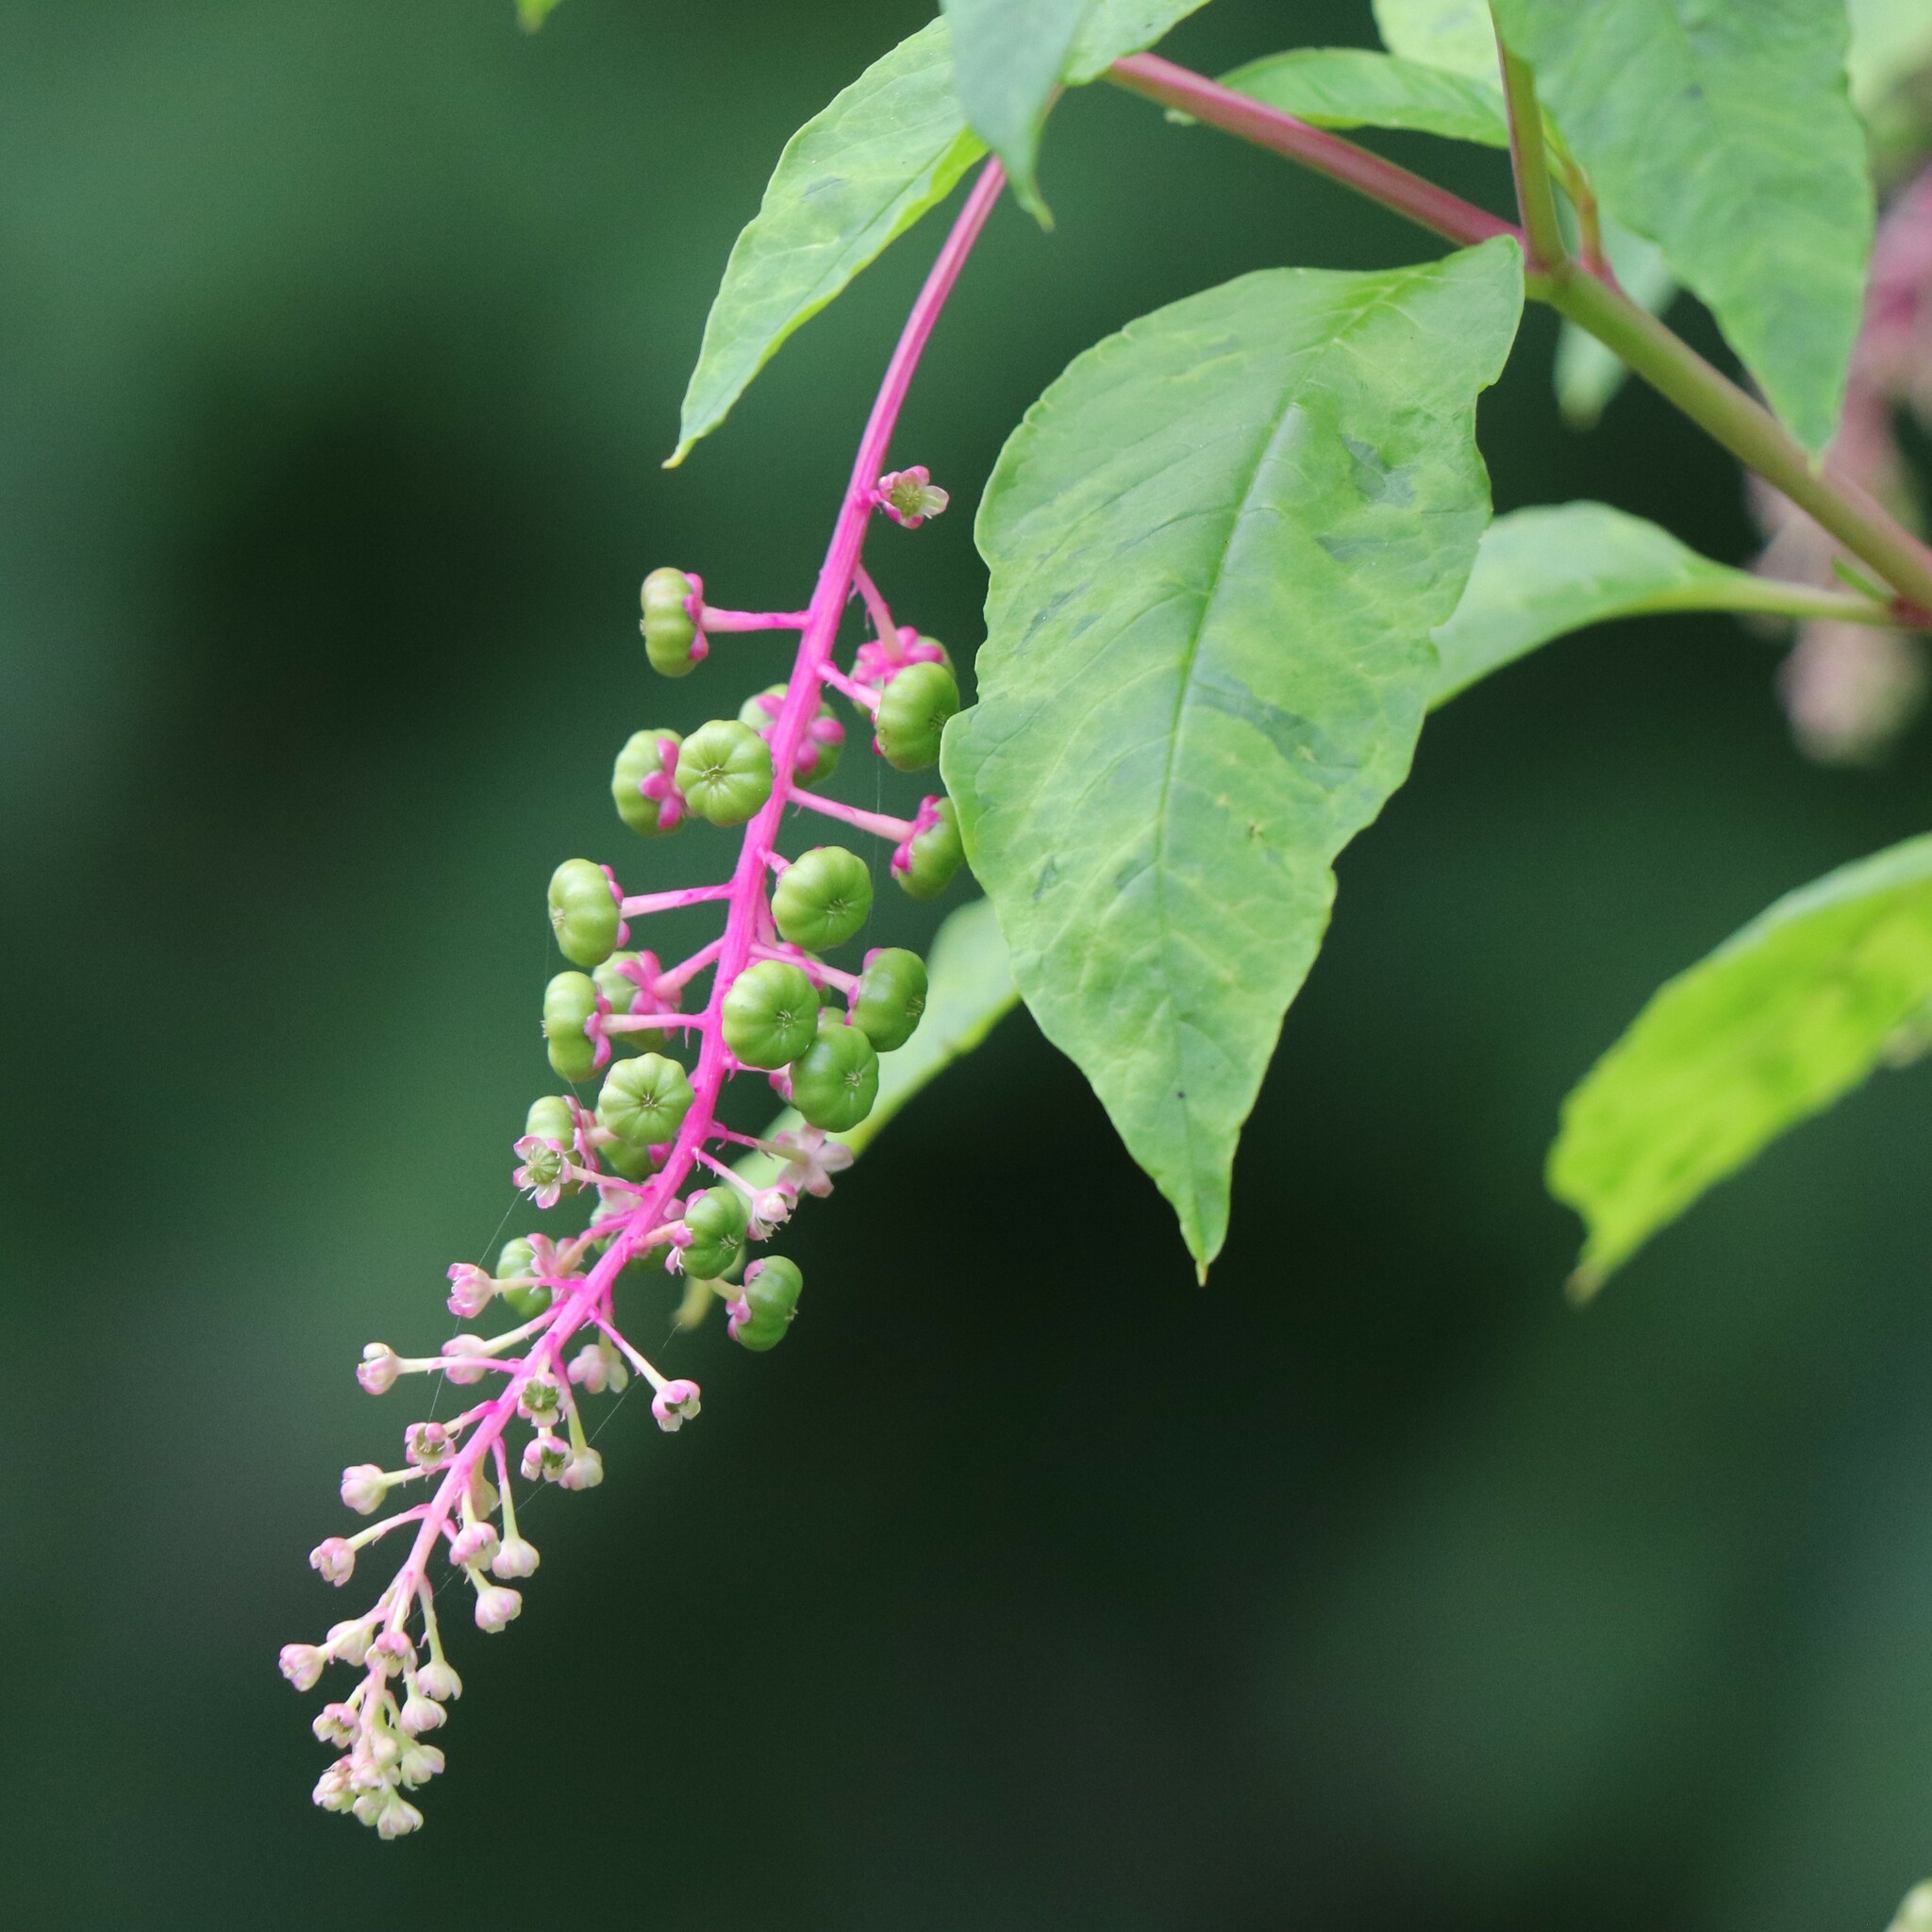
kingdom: Plantae
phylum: Tracheophyta
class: Magnoliopsida
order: Caryophyllales
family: Phytolaccaceae
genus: Phytolacca
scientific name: Phytolacca americana
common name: American pokeweed
